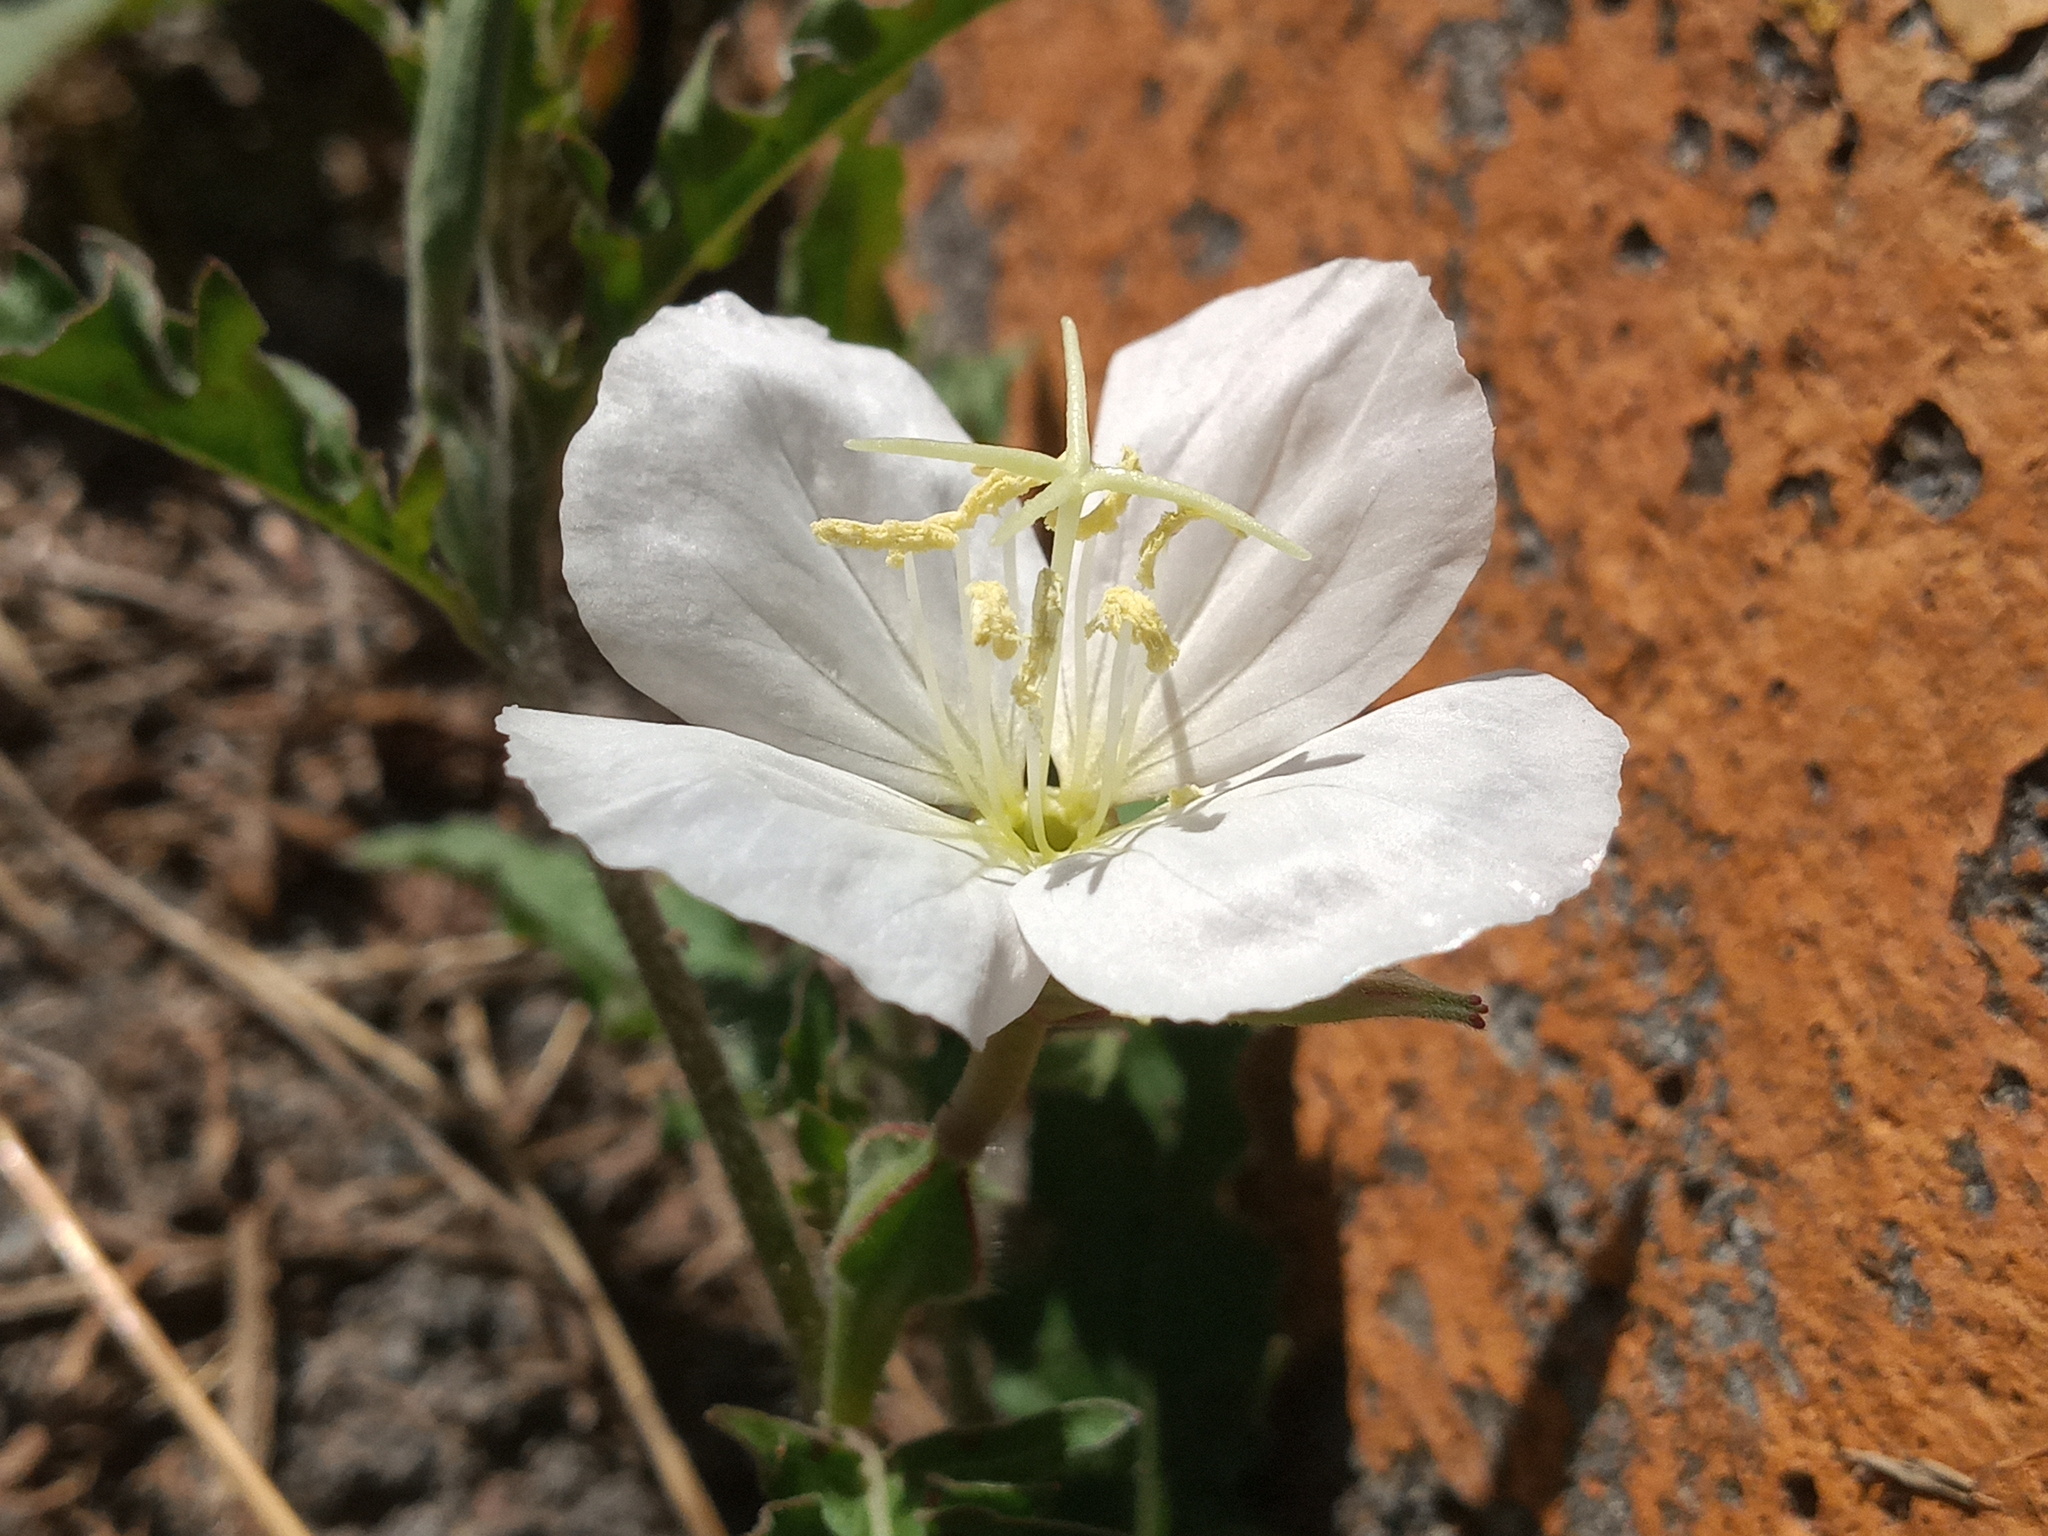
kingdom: Plantae
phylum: Tracheophyta
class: Magnoliopsida
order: Myrtales
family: Onagraceae
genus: Oenothera
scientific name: Oenothera tetraptera
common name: Four-wing evening-primrose
